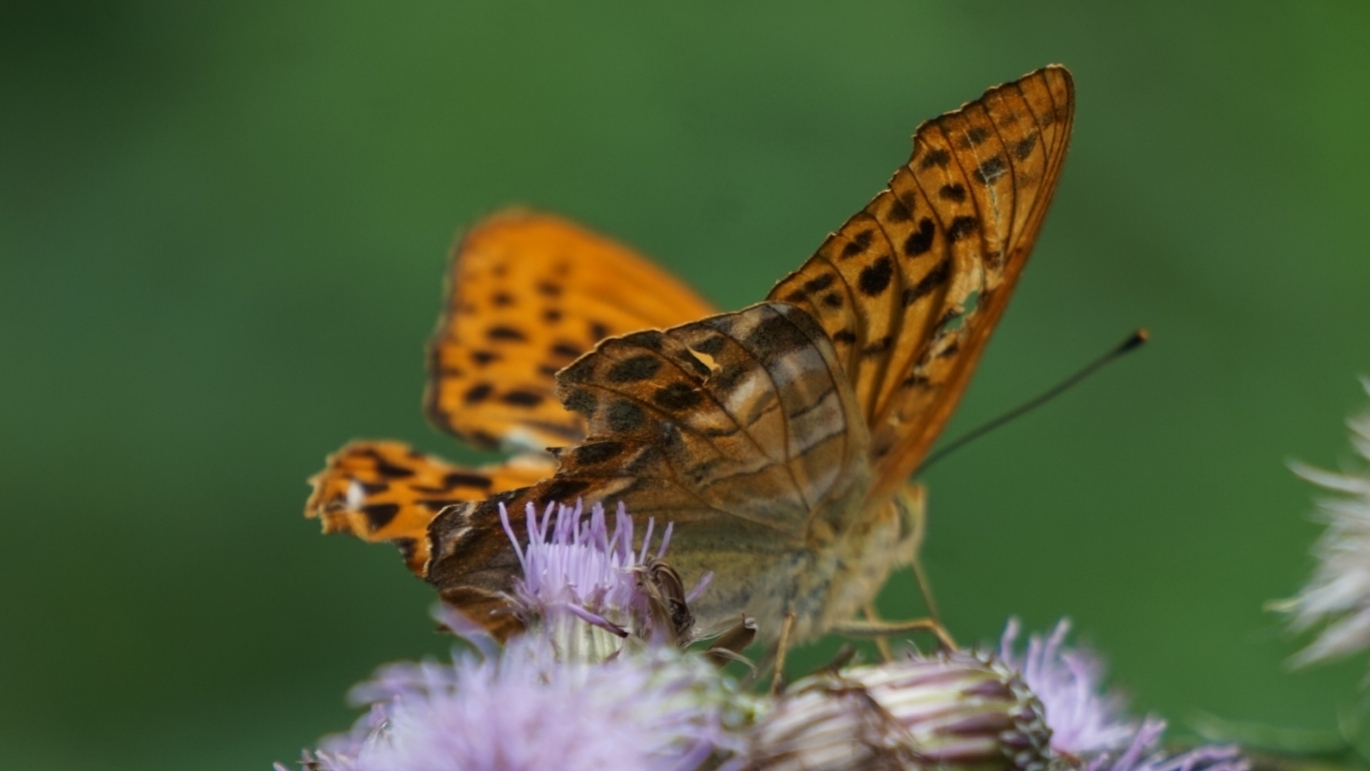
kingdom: Animalia
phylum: Arthropoda
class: Insecta
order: Lepidoptera
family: Nymphalidae
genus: Argynnis
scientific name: Argynnis paphia
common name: Silver-washed fritillary
